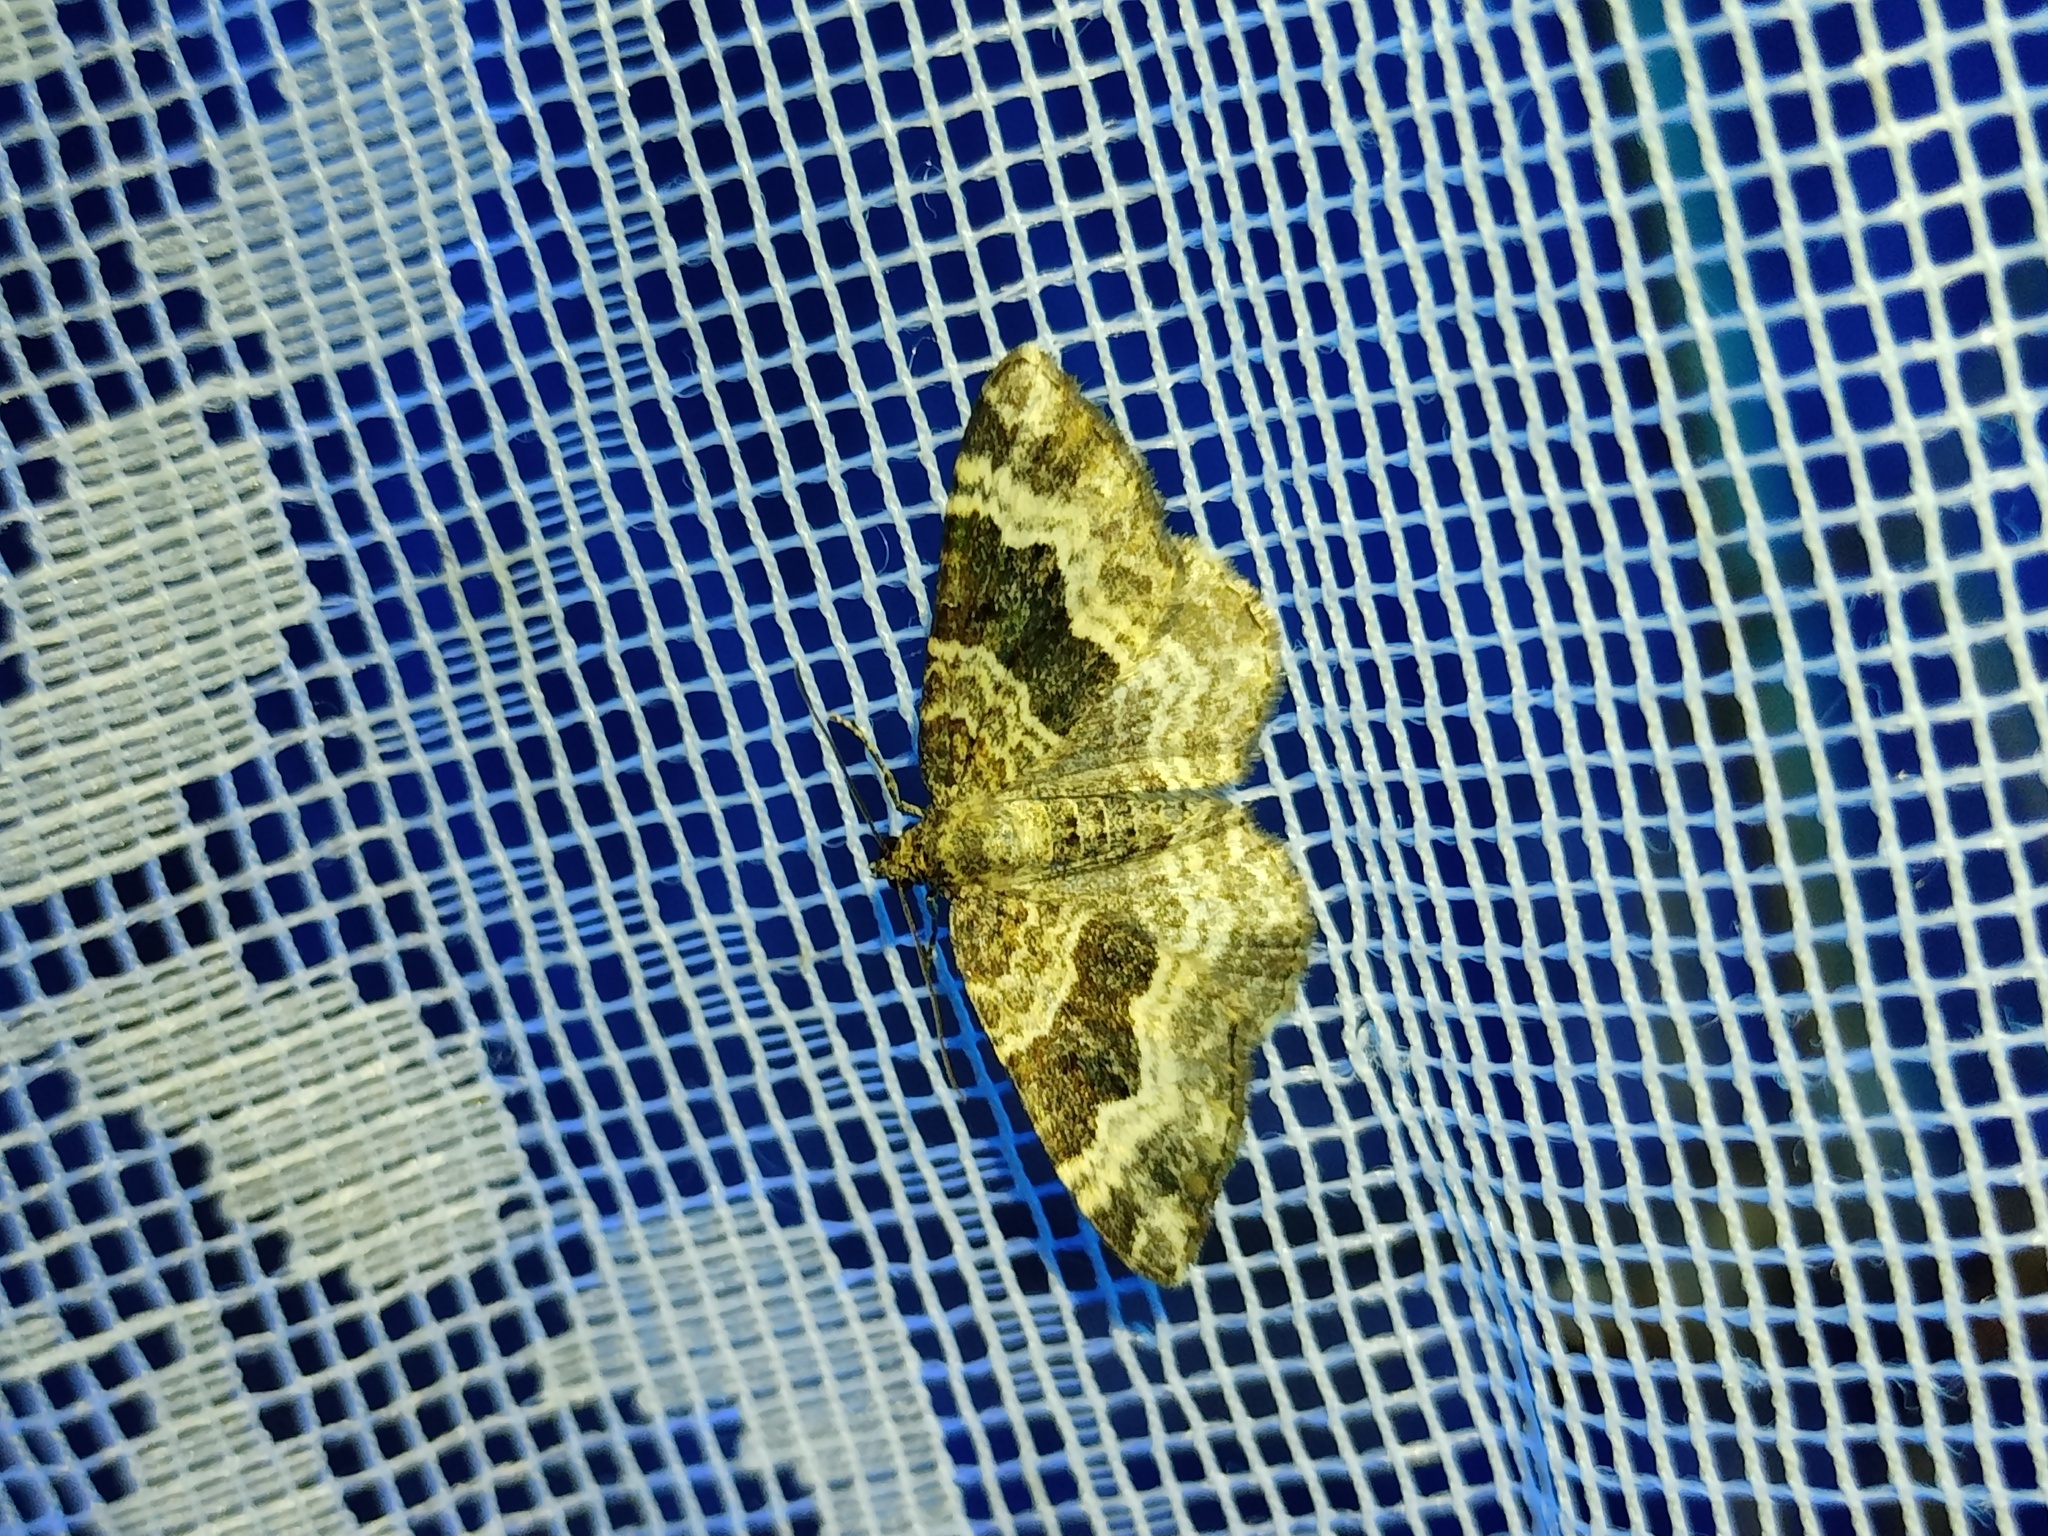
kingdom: Animalia
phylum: Arthropoda
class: Insecta
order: Lepidoptera
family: Geometridae
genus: Epirrhoe
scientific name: Epirrhoe alternata
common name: Common carpet
